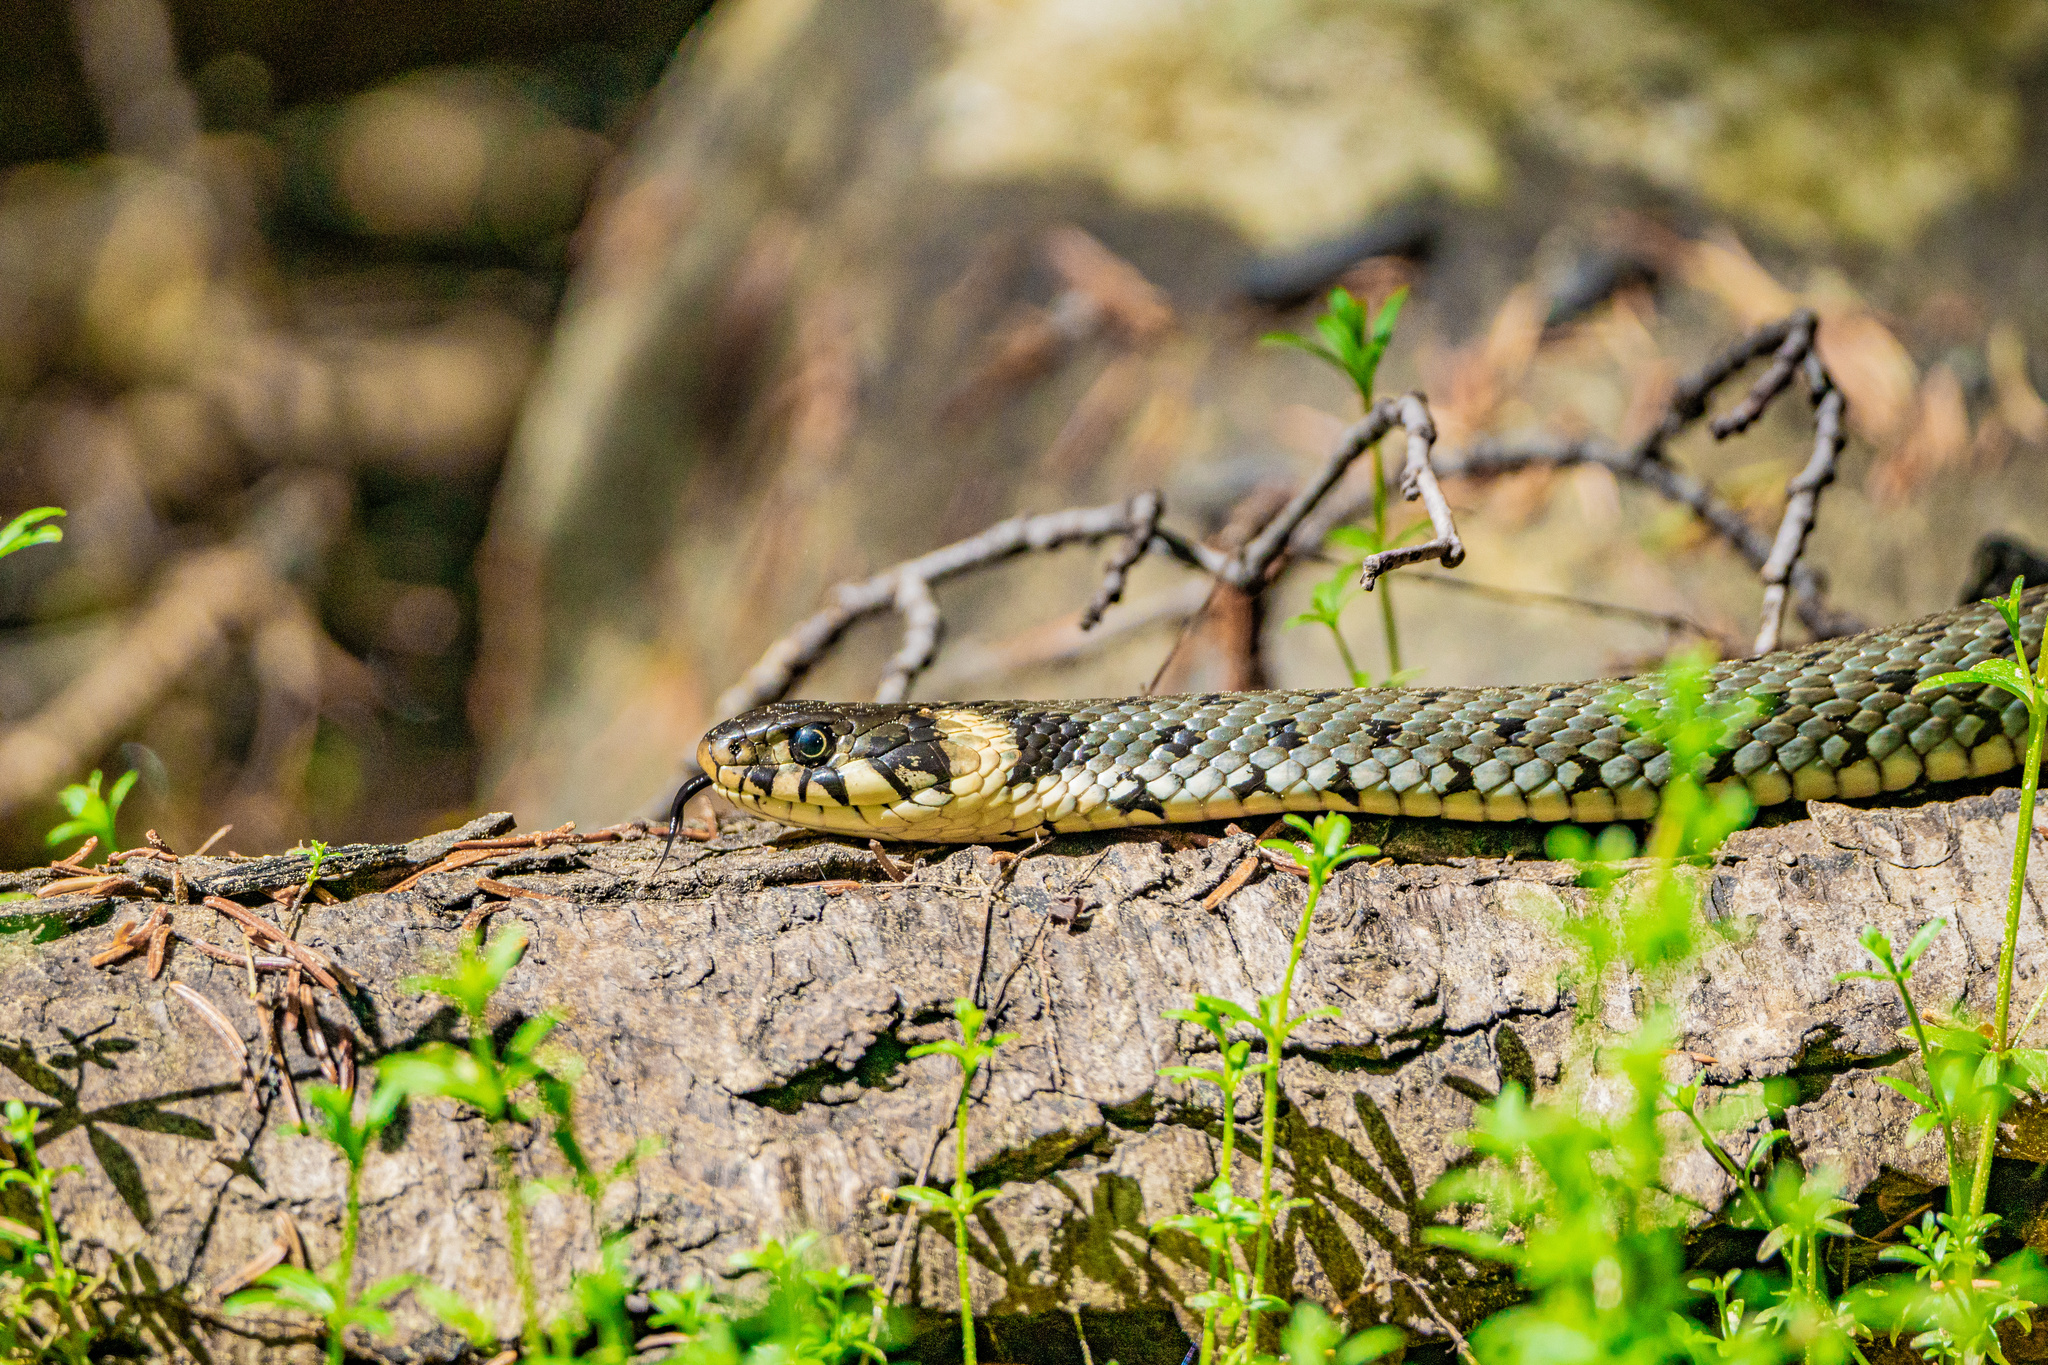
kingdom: Animalia
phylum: Chordata
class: Squamata
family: Colubridae
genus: Natrix
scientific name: Natrix natrix
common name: Grass snake
